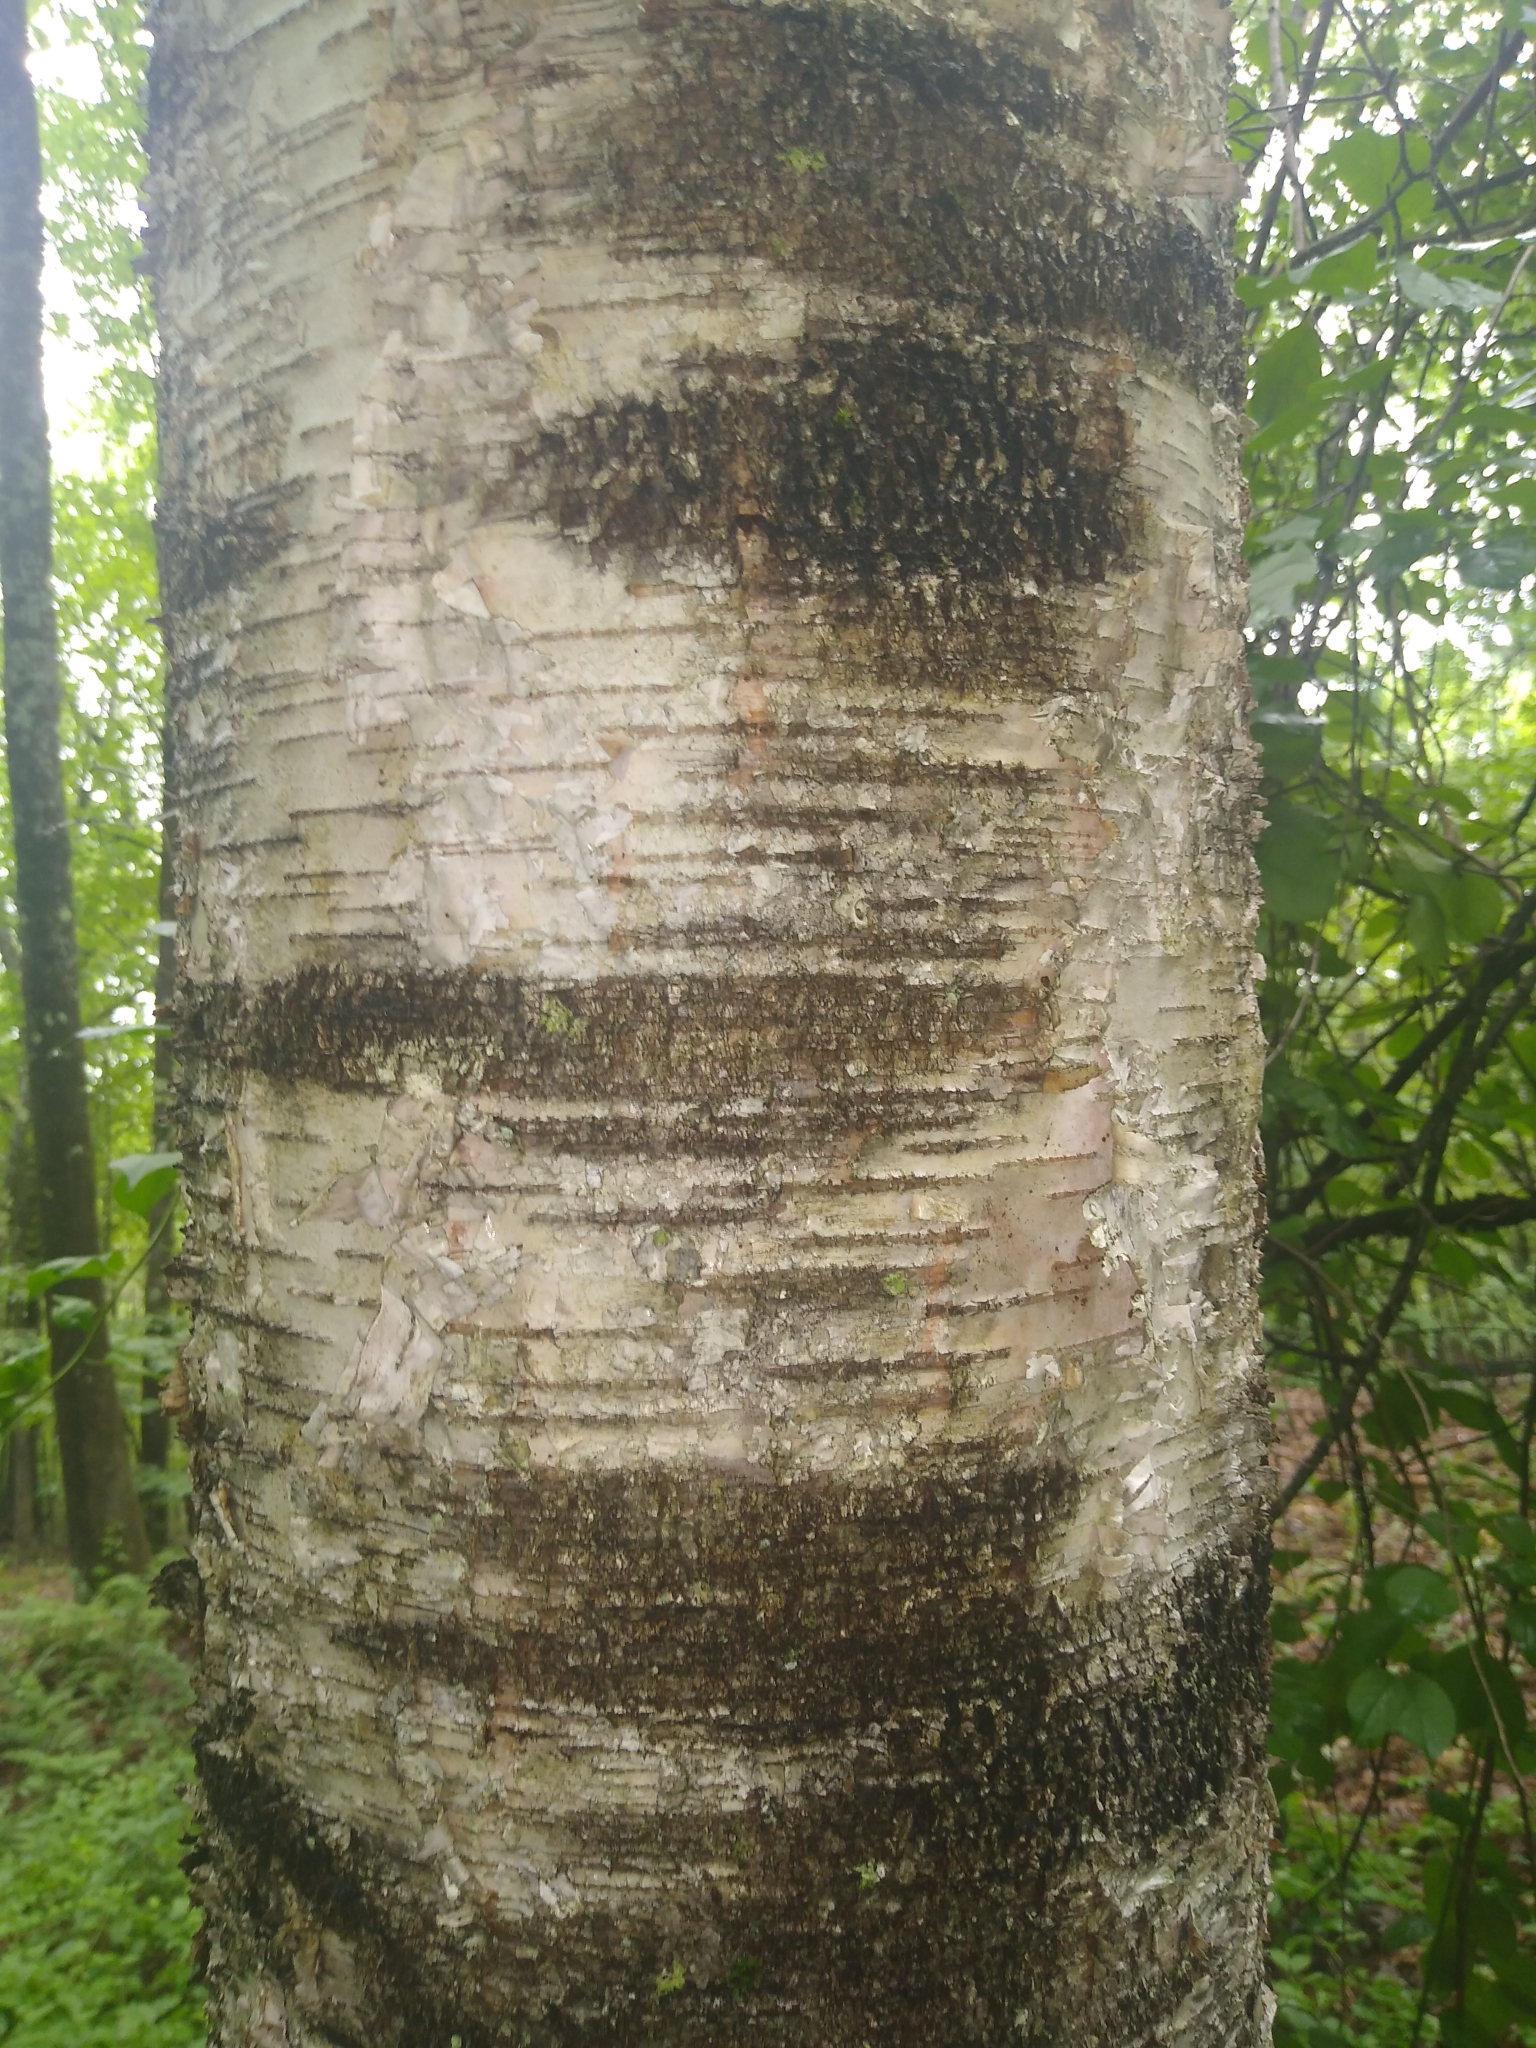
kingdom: Plantae
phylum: Tracheophyta
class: Magnoliopsida
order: Fagales
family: Betulaceae
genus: Betula
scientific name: Betula populifolia
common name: Fire birch
